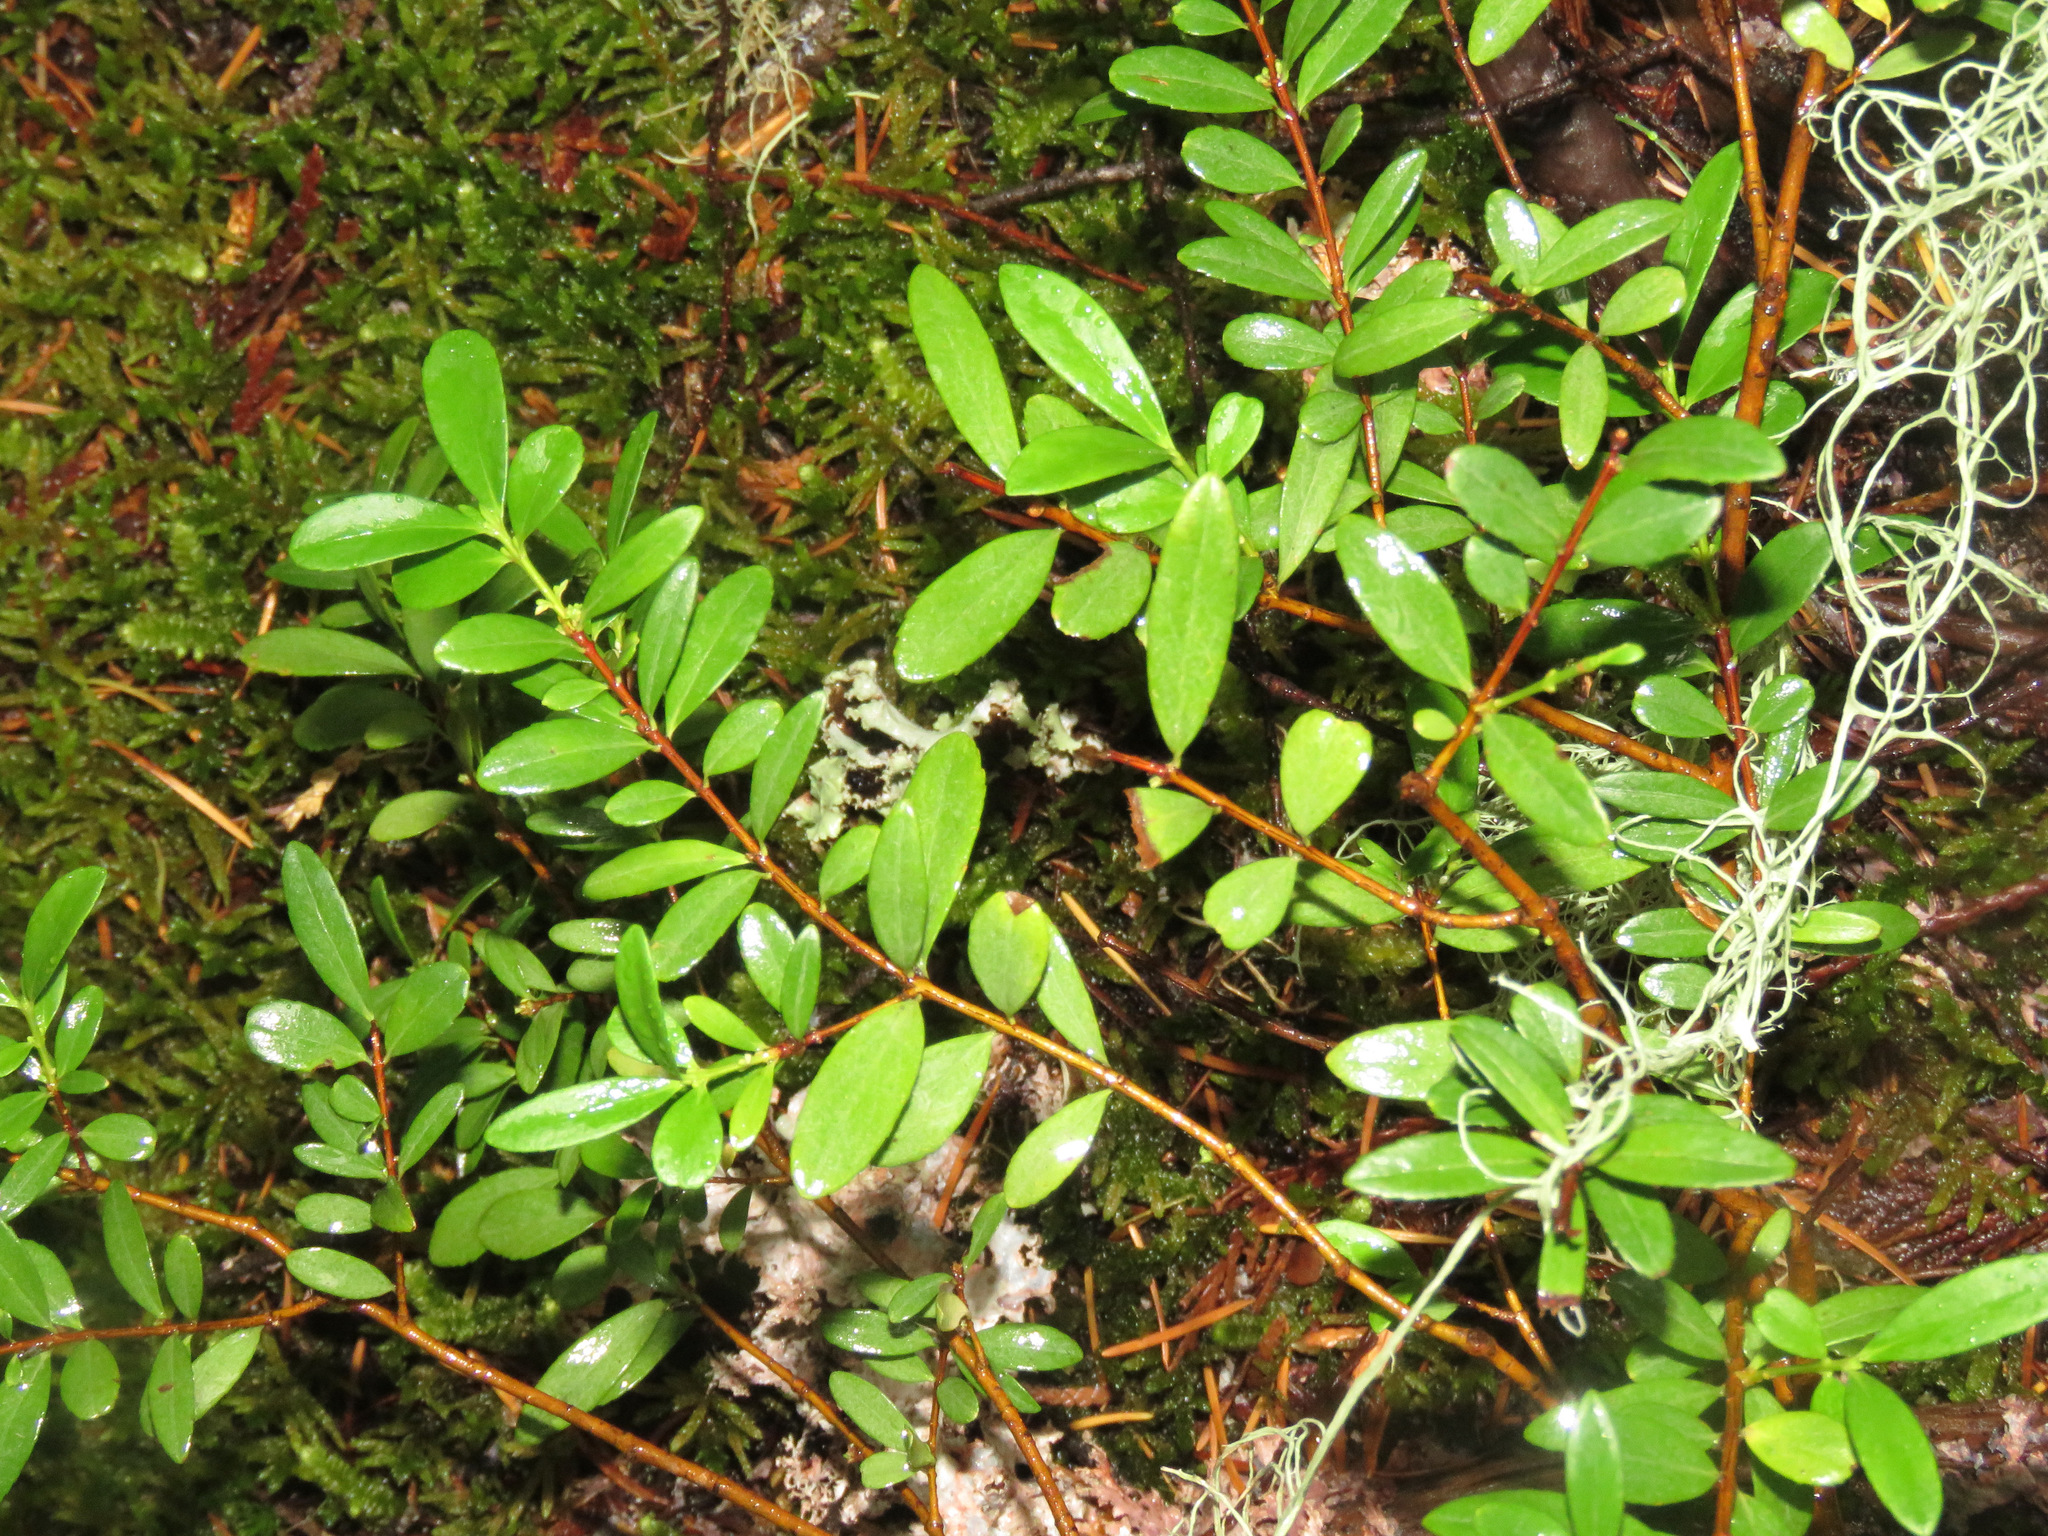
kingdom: Plantae
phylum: Tracheophyta
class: Magnoliopsida
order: Celastrales
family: Celastraceae
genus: Paxistima
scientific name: Paxistima myrsinites
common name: Mountain-lover
